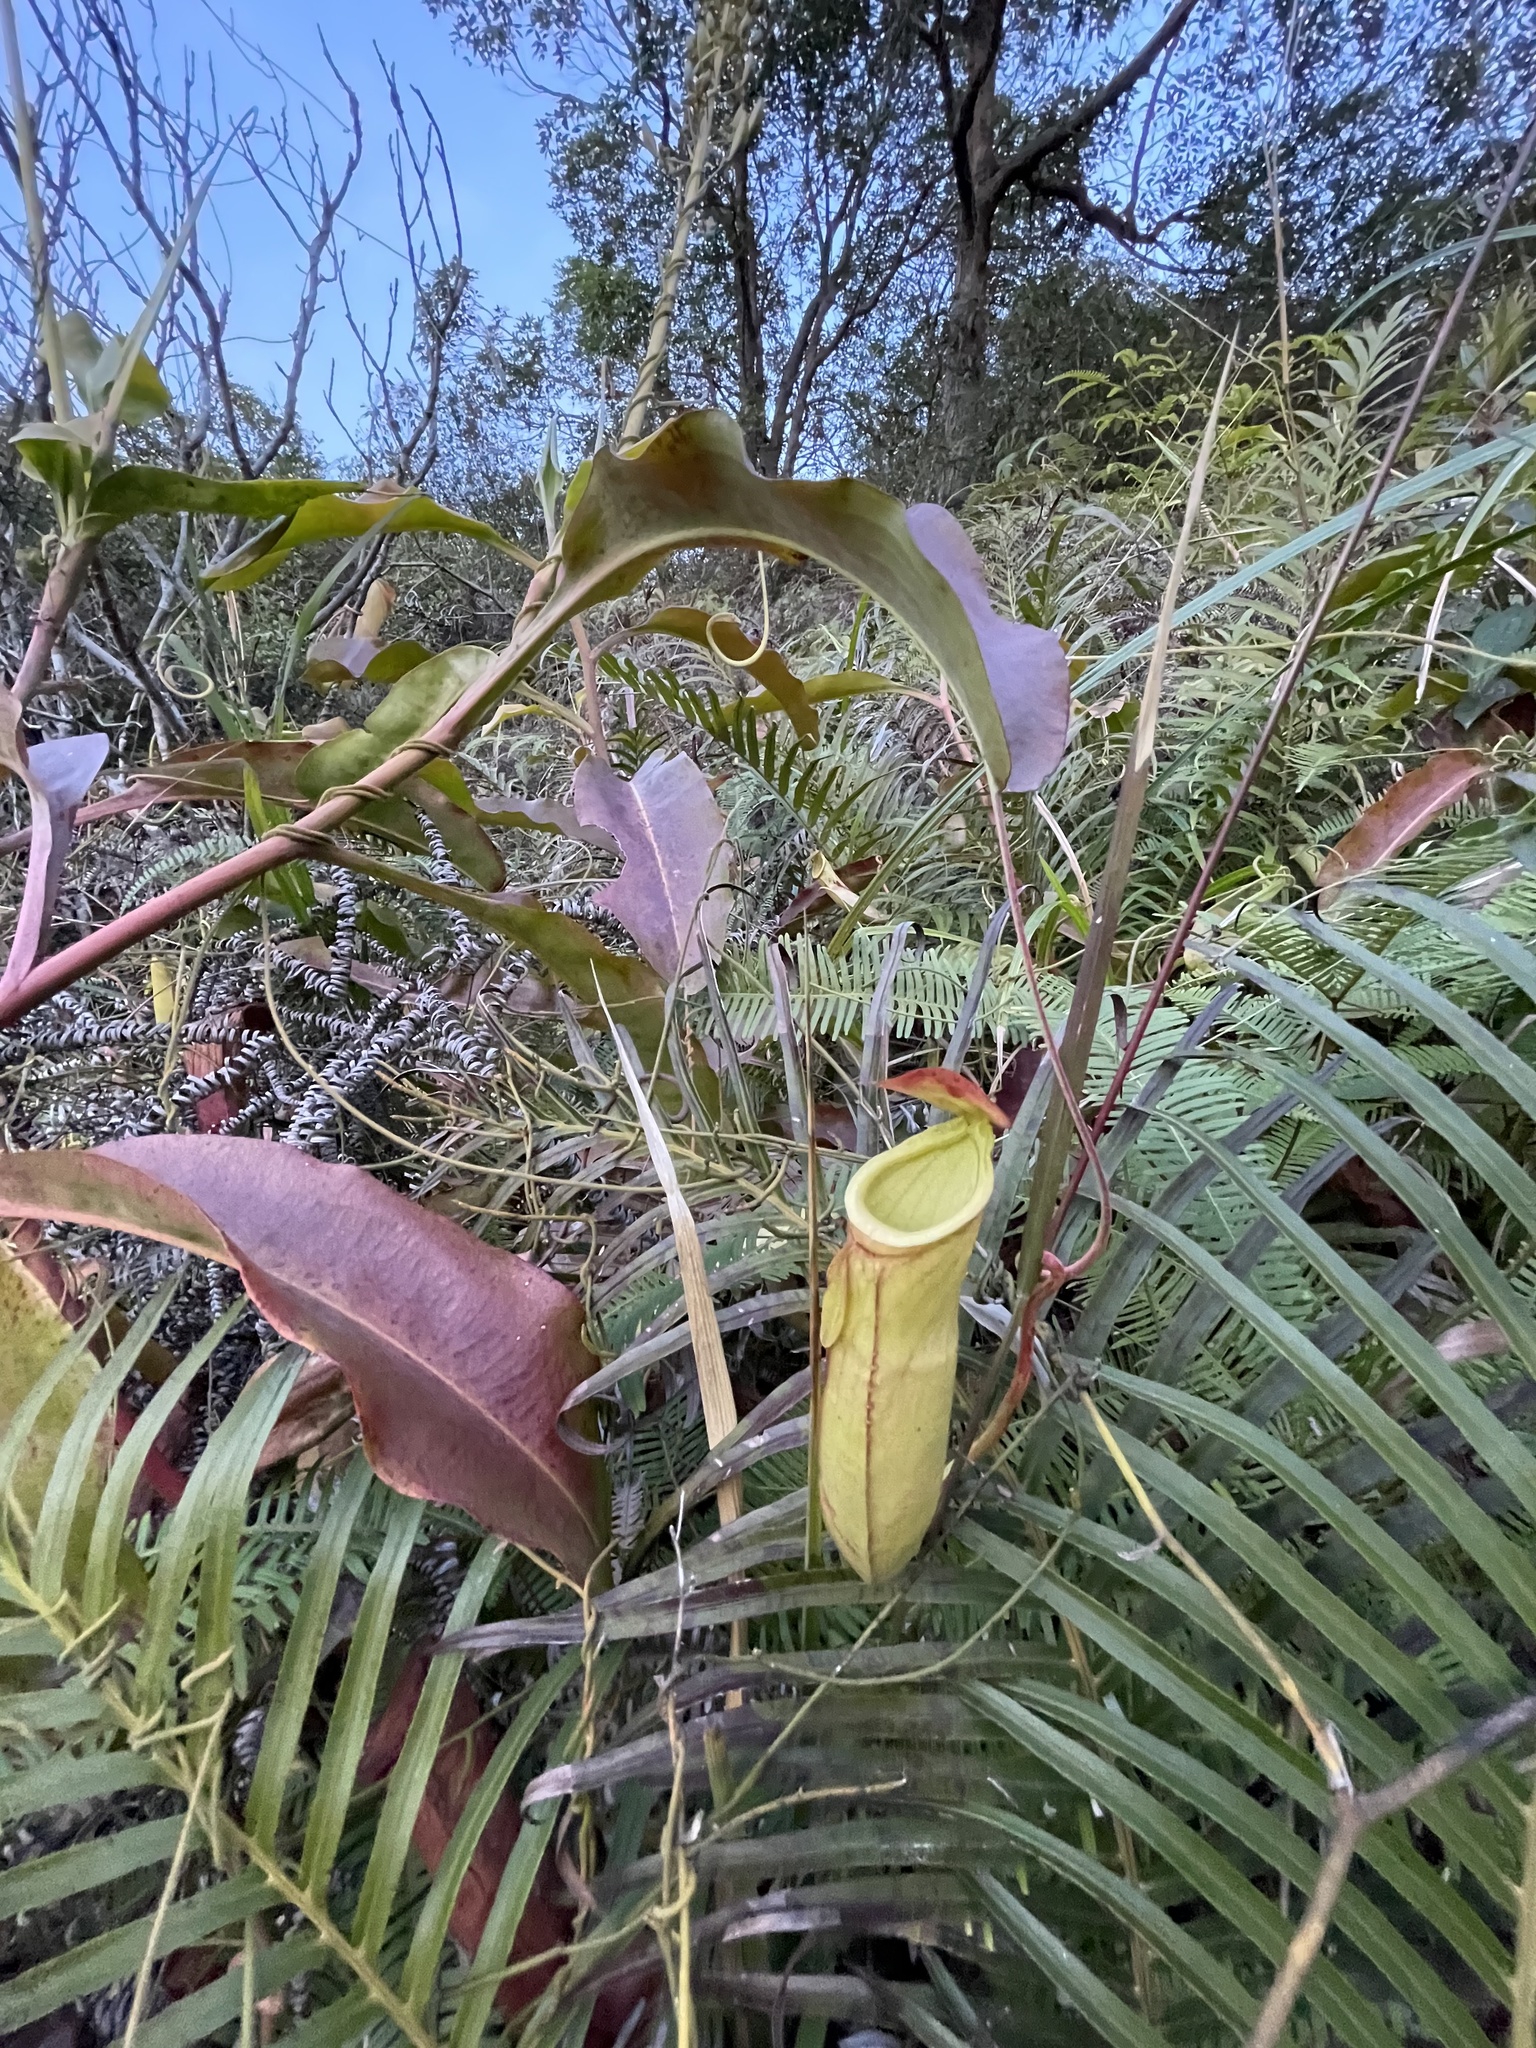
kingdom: Plantae
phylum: Tracheophyta
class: Magnoliopsida
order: Caryophyllales
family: Nepenthaceae
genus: Nepenthes
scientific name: Nepenthes mirabilis
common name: Tropical pitcherplant
